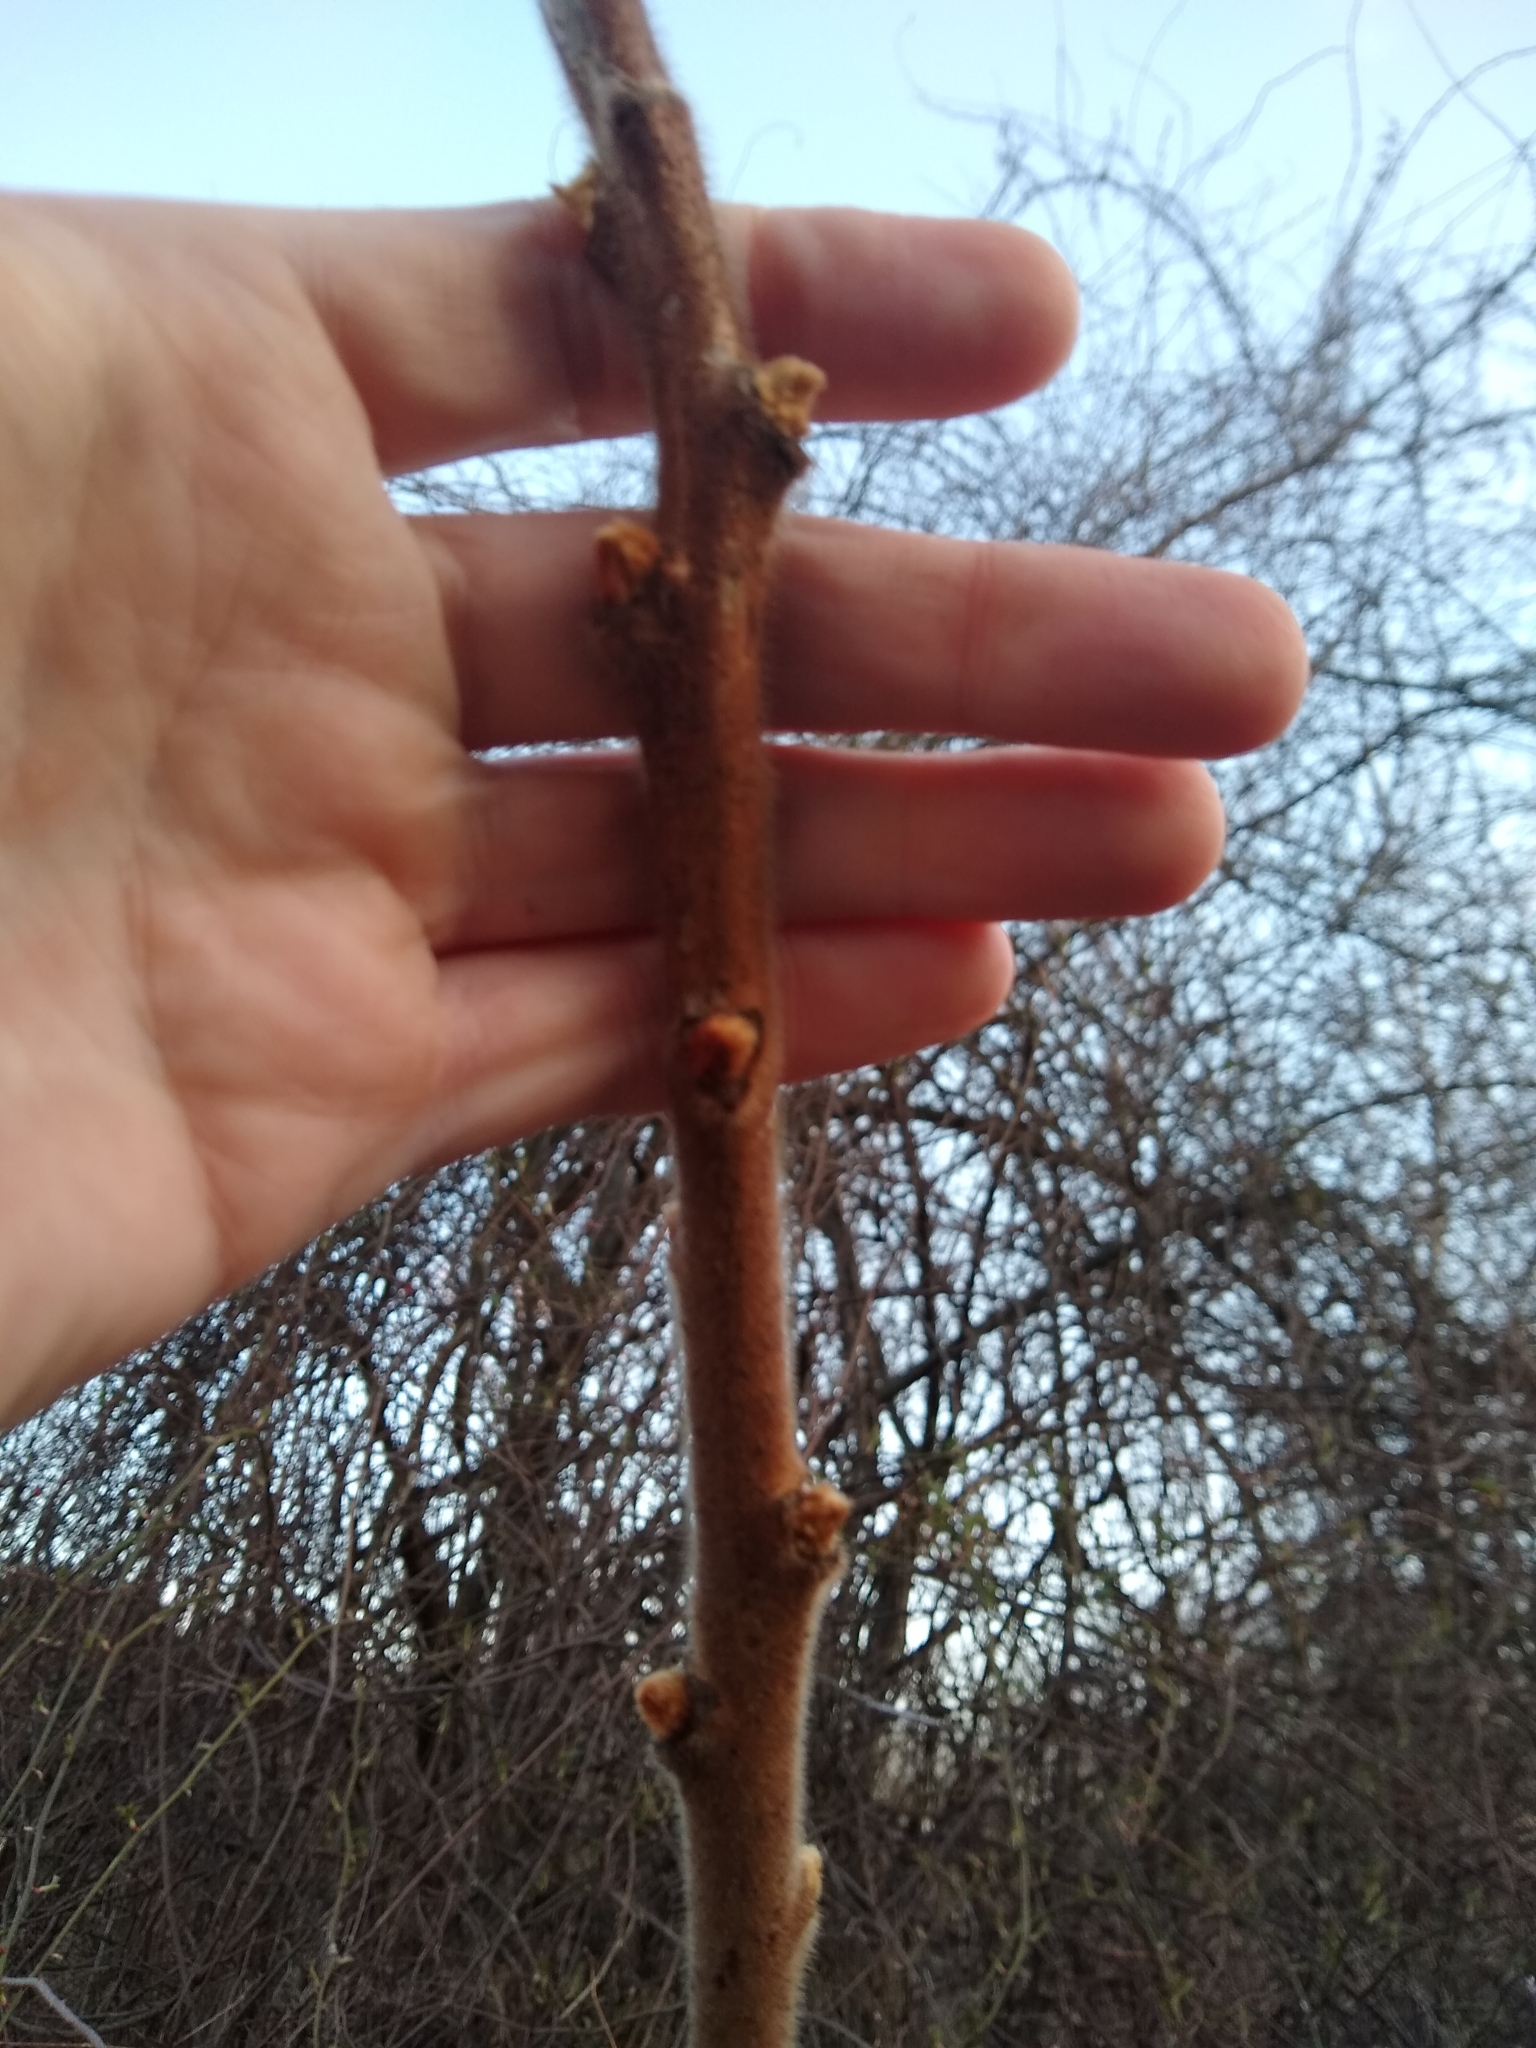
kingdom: Plantae
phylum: Tracheophyta
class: Magnoliopsida
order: Sapindales
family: Anacardiaceae
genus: Rhus
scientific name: Rhus typhina
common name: Staghorn sumac
